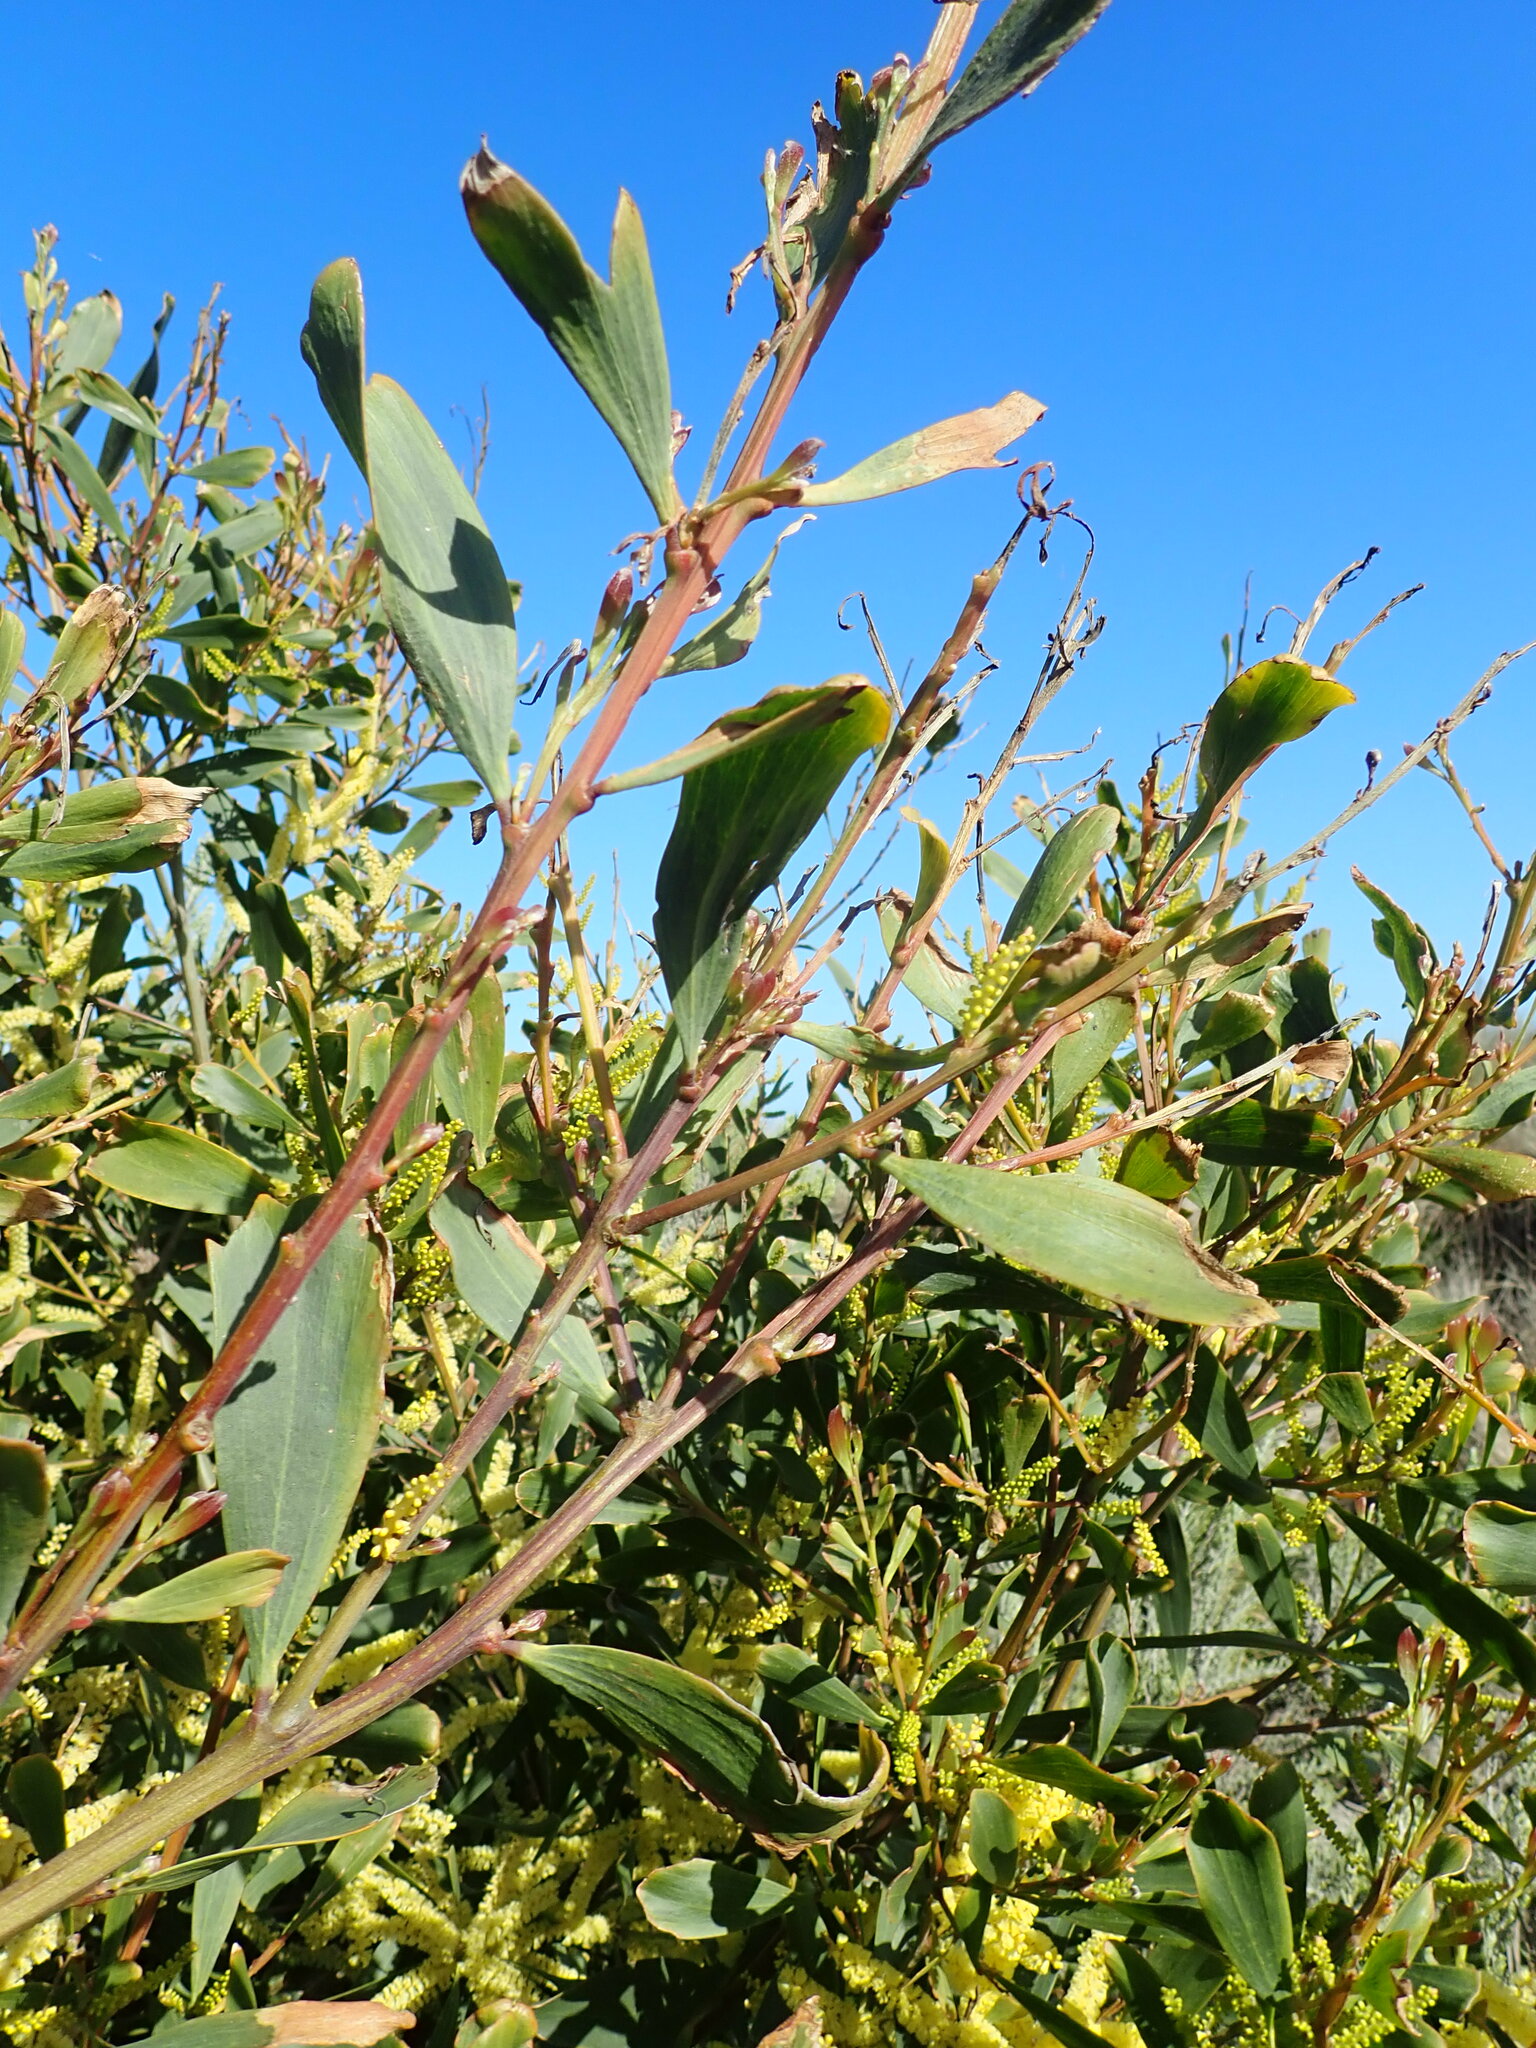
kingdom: Plantae
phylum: Tracheophyta
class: Magnoliopsida
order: Fabales
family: Fabaceae
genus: Acacia
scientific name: Acacia longifolia
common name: Sydney golden wattle
